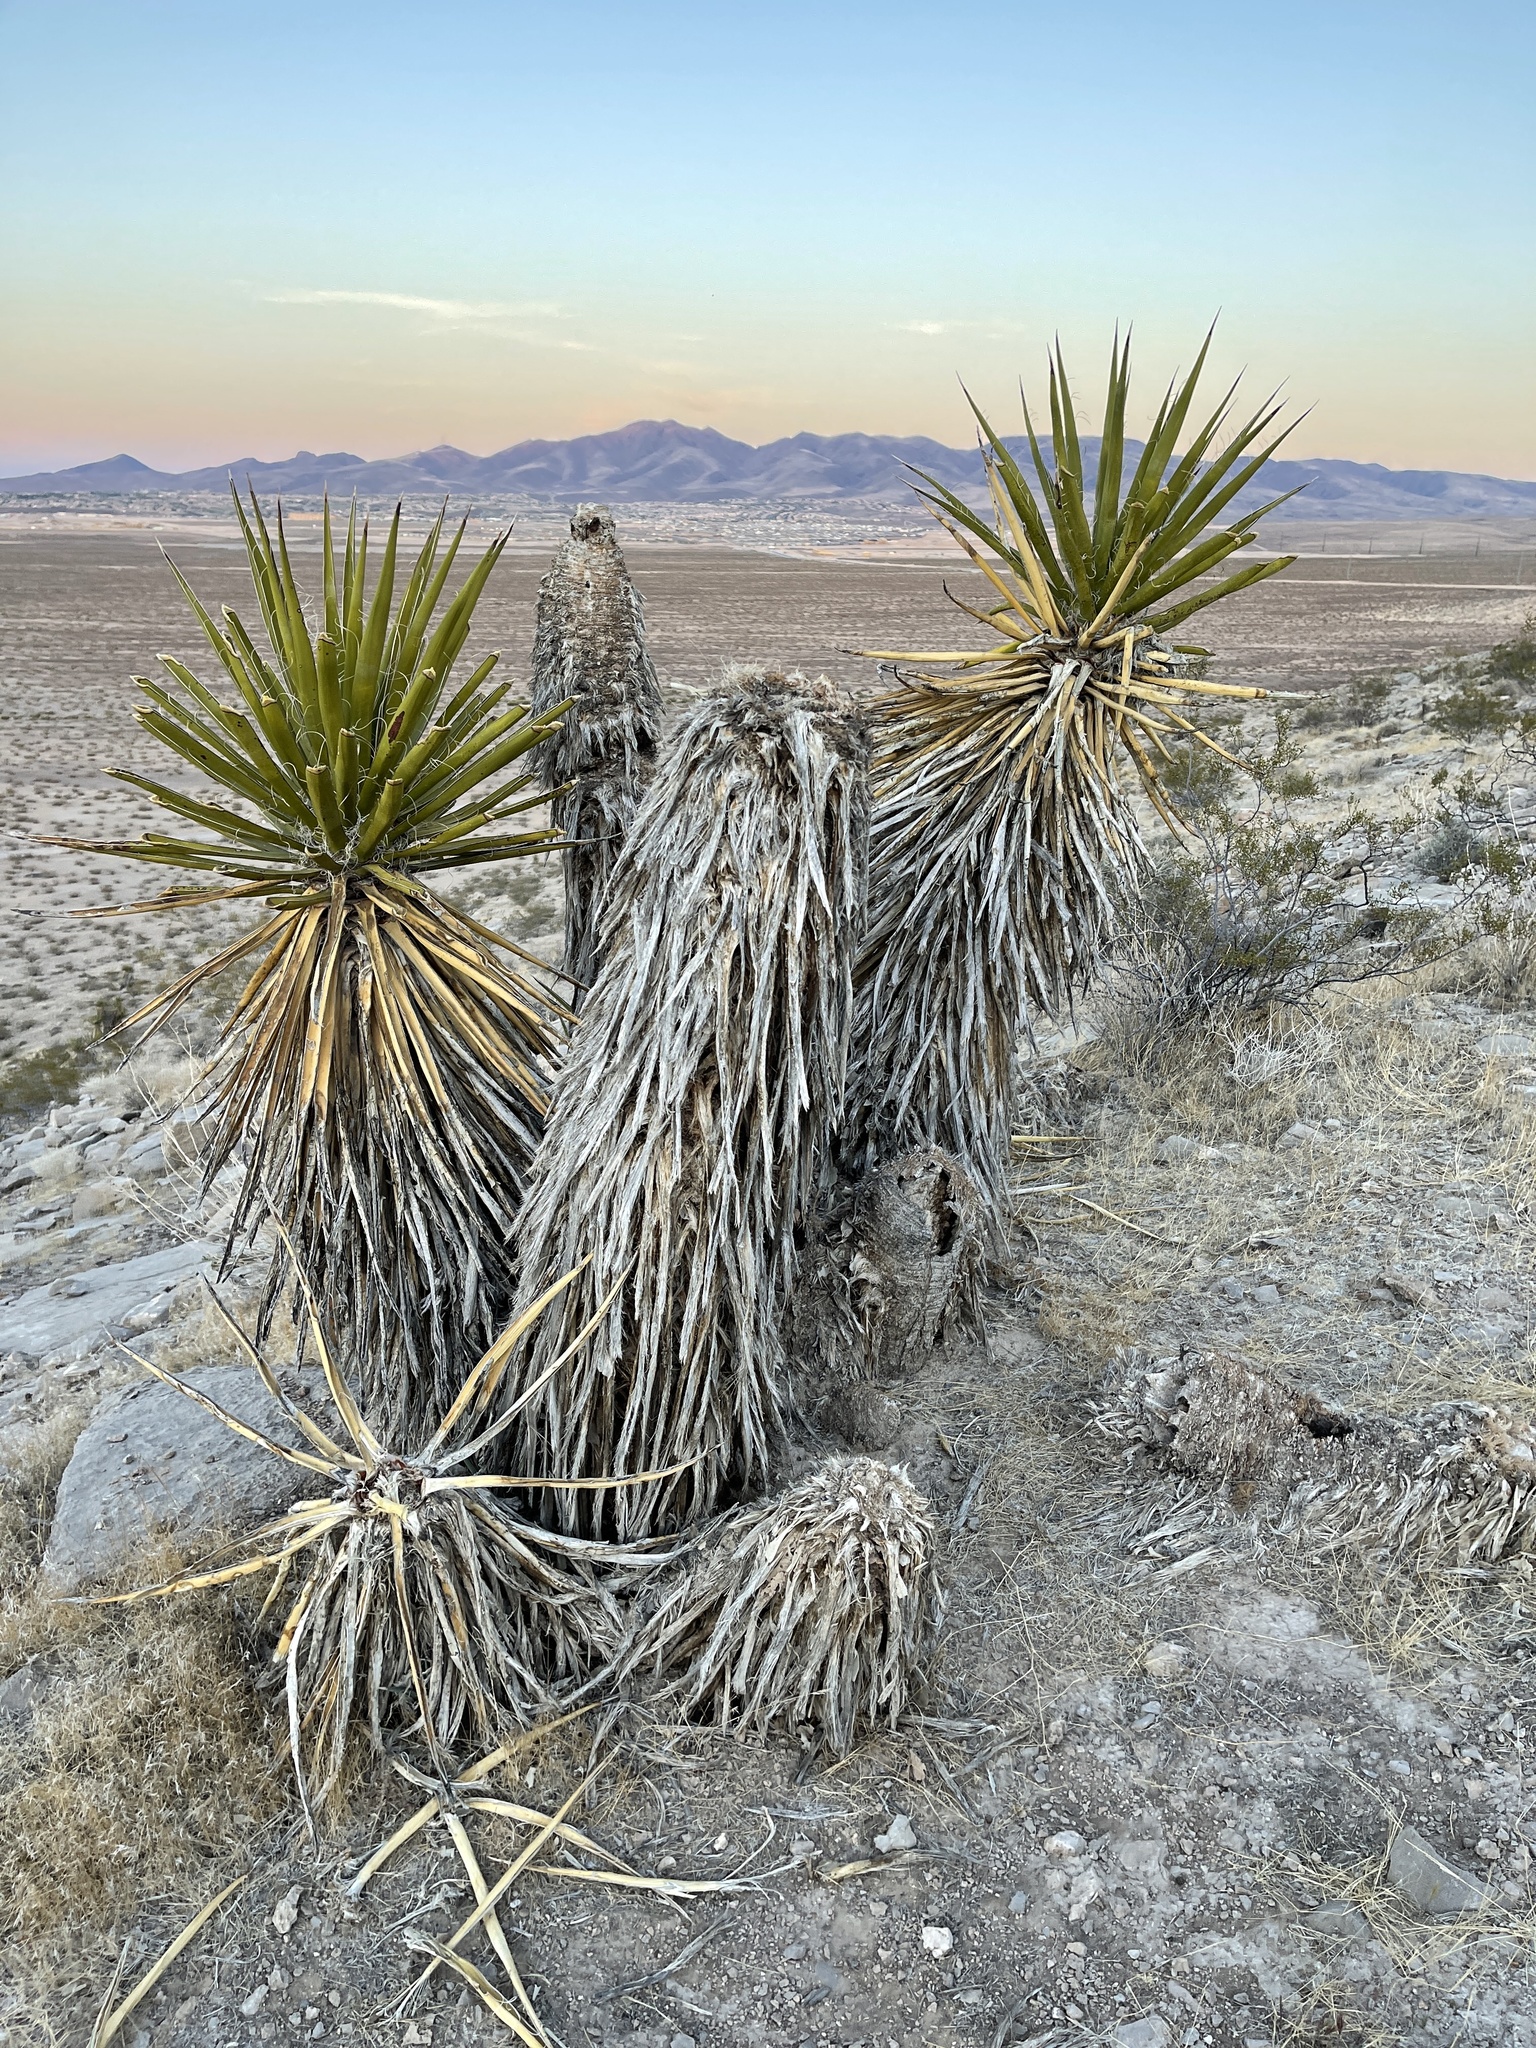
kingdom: Plantae
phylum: Tracheophyta
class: Liliopsida
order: Asparagales
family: Asparagaceae
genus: Yucca
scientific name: Yucca schidigera
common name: Mojave yucca
